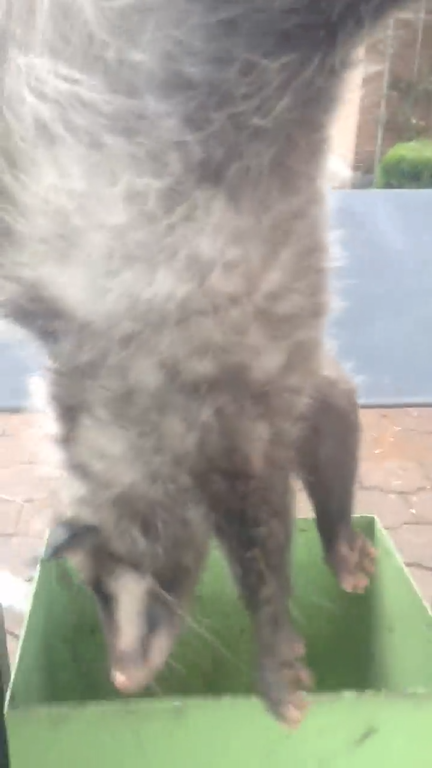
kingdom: Animalia
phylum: Chordata
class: Mammalia
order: Didelphimorphia
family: Didelphidae
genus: Didelphis
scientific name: Didelphis virginiana
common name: Virginia opossum
